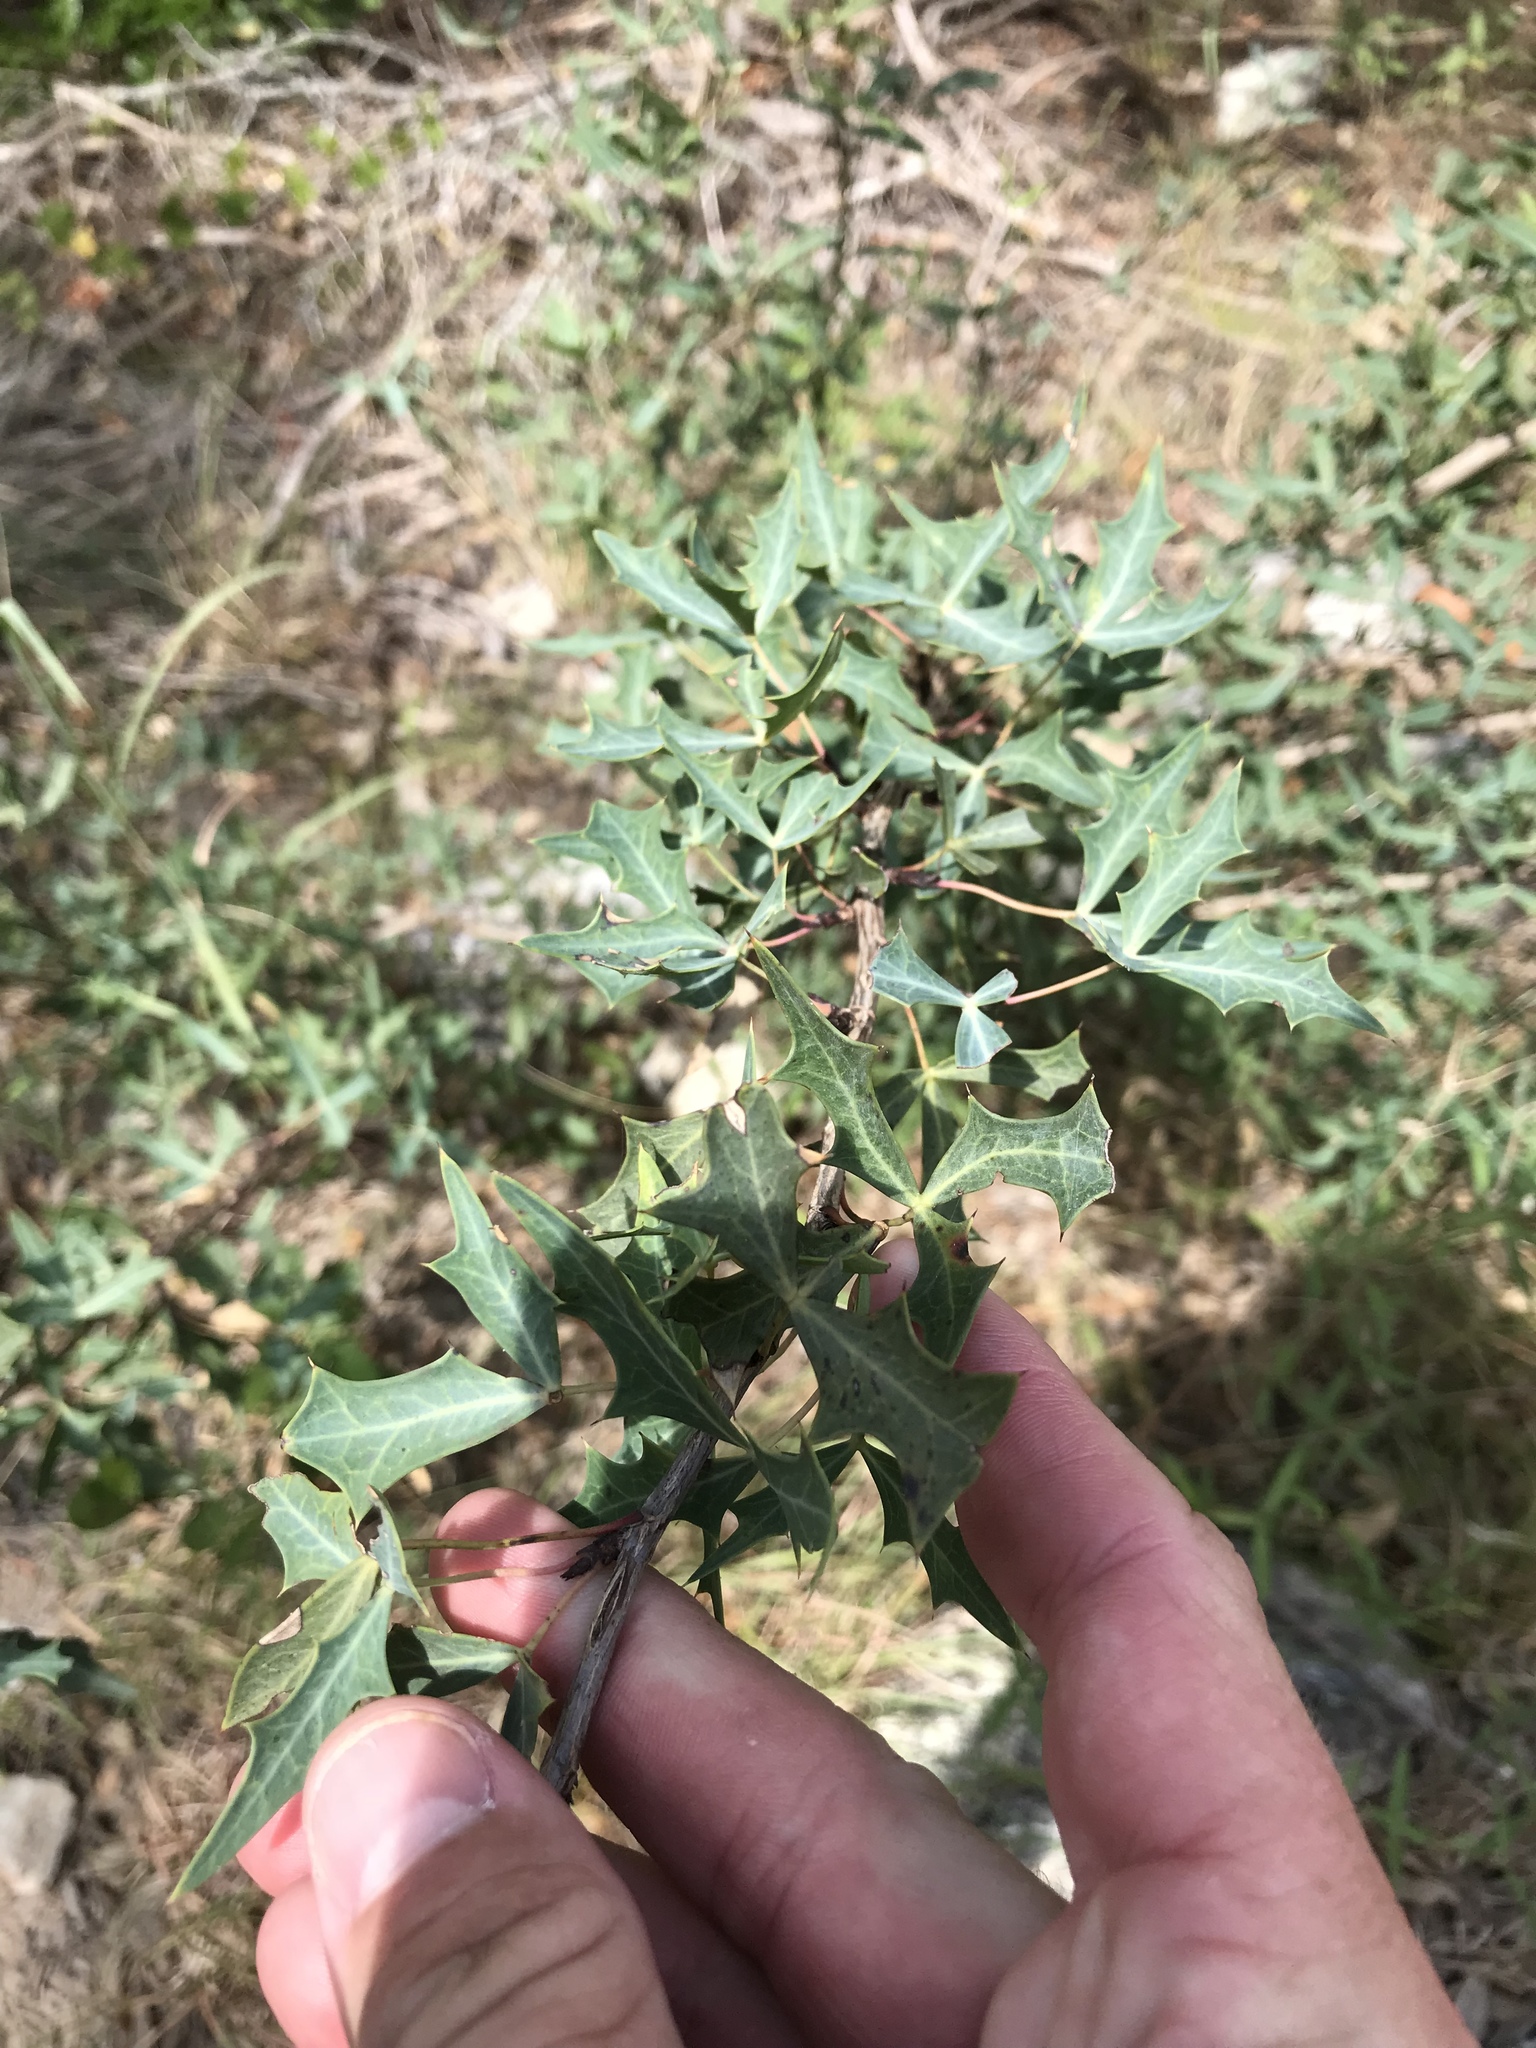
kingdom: Plantae
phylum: Tracheophyta
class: Magnoliopsida
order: Ranunculales
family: Berberidaceae
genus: Alloberberis
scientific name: Alloberberis trifoliolata
